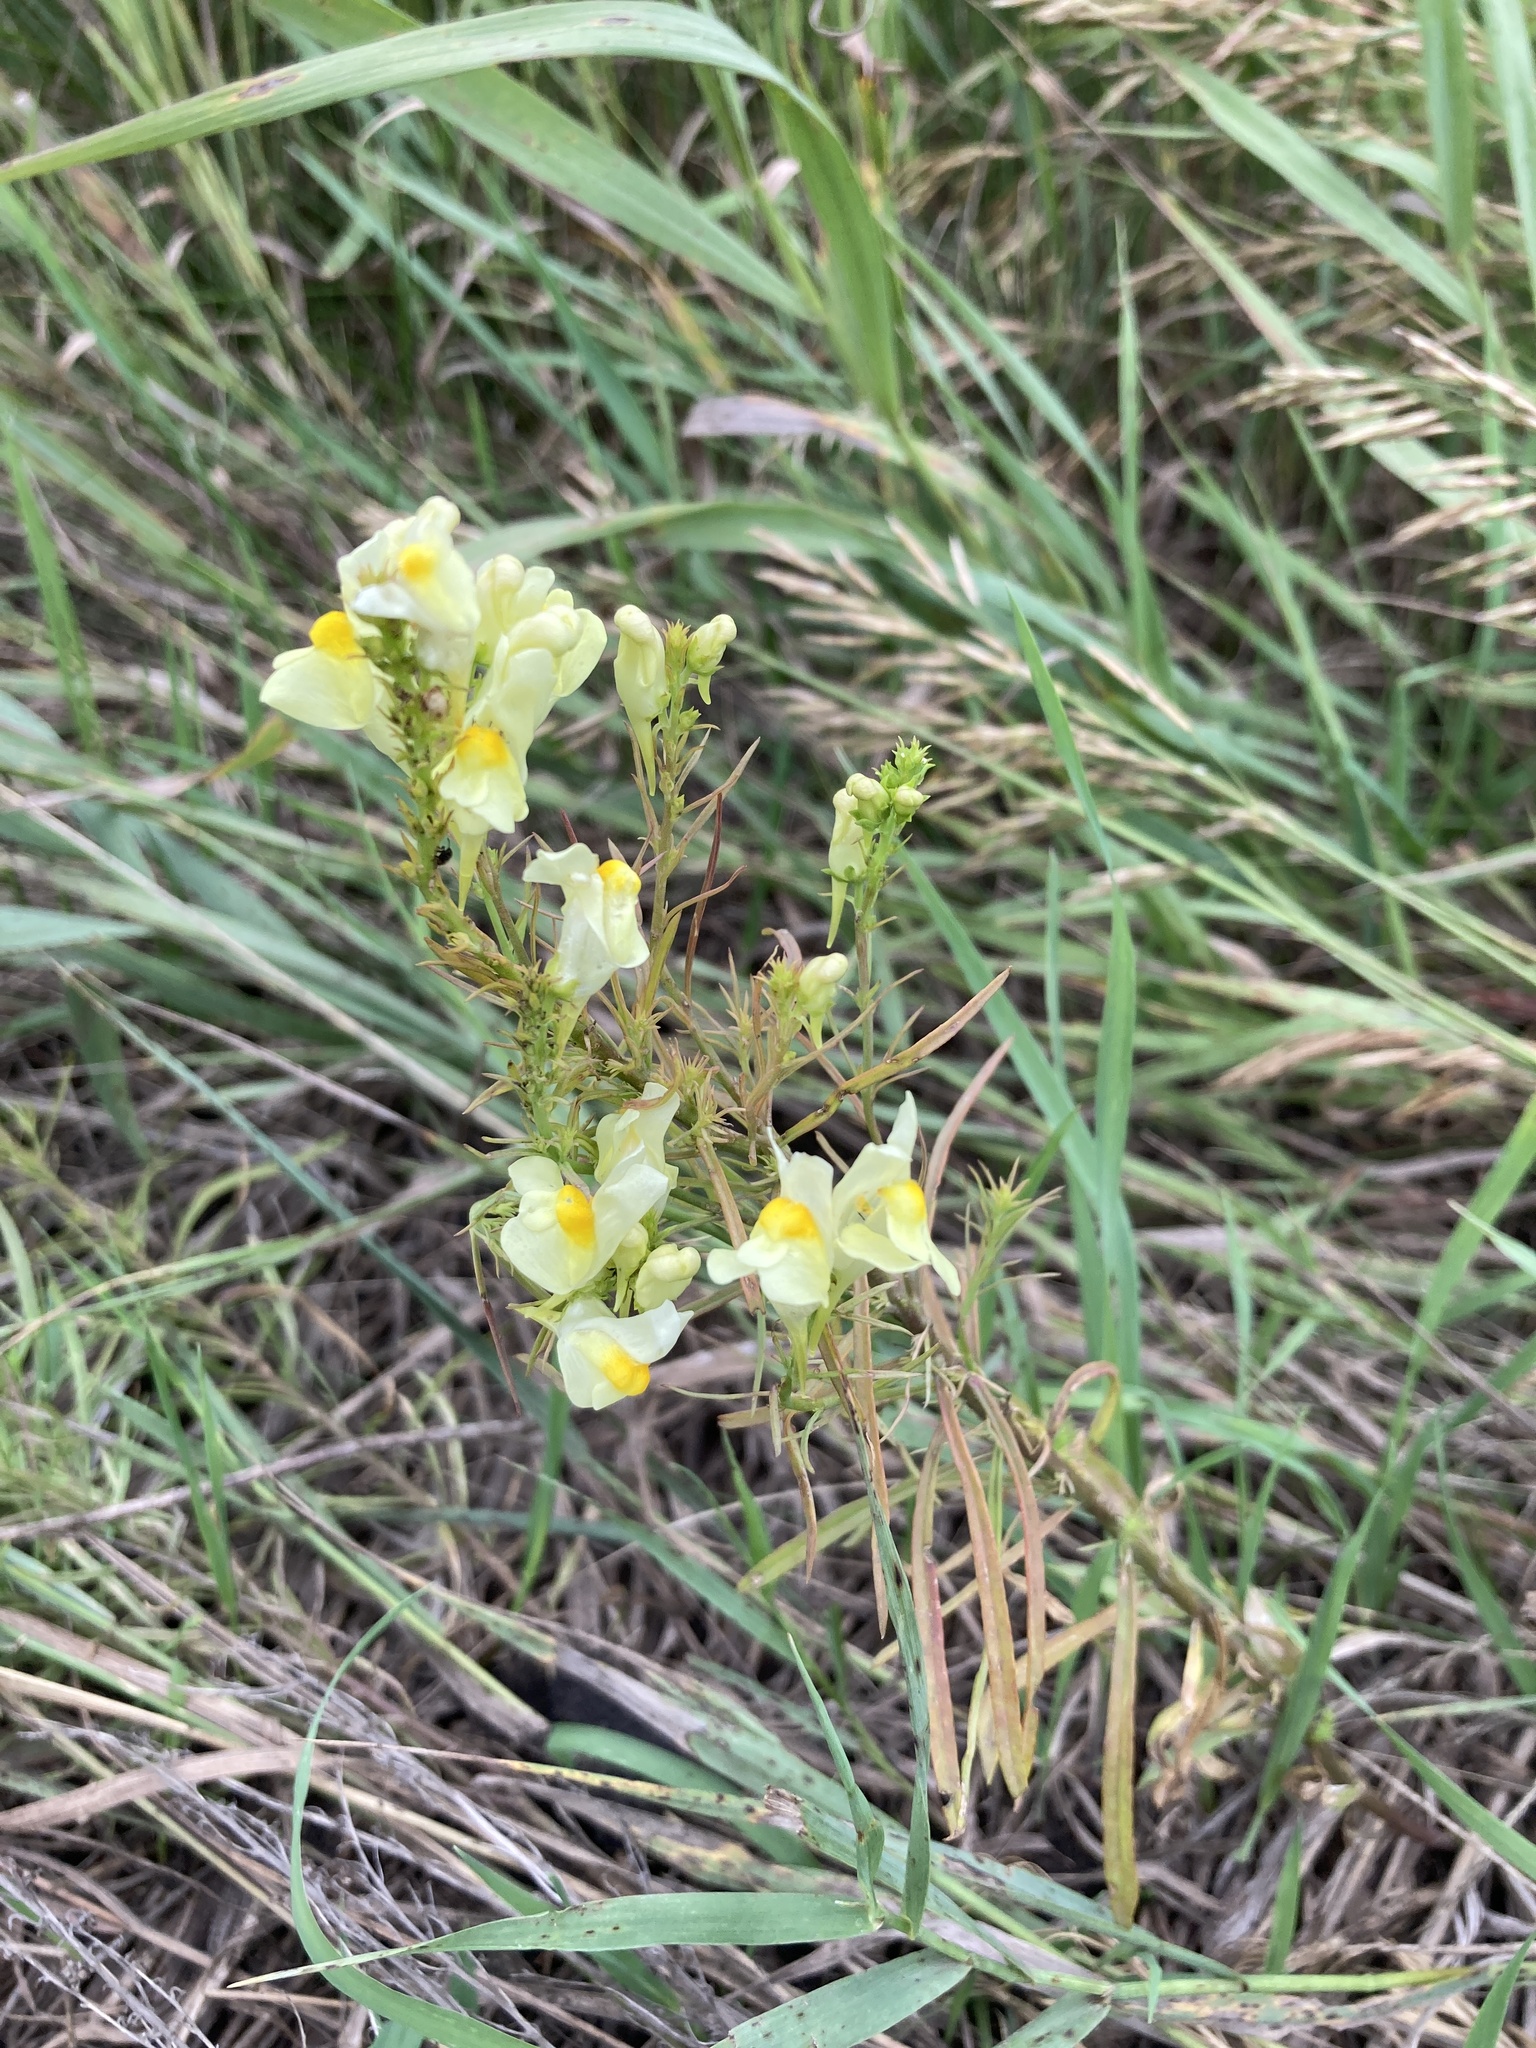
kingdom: Plantae
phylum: Tracheophyta
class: Magnoliopsida
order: Lamiales
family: Plantaginaceae
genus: Linaria
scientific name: Linaria vulgaris
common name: Butter and eggs
